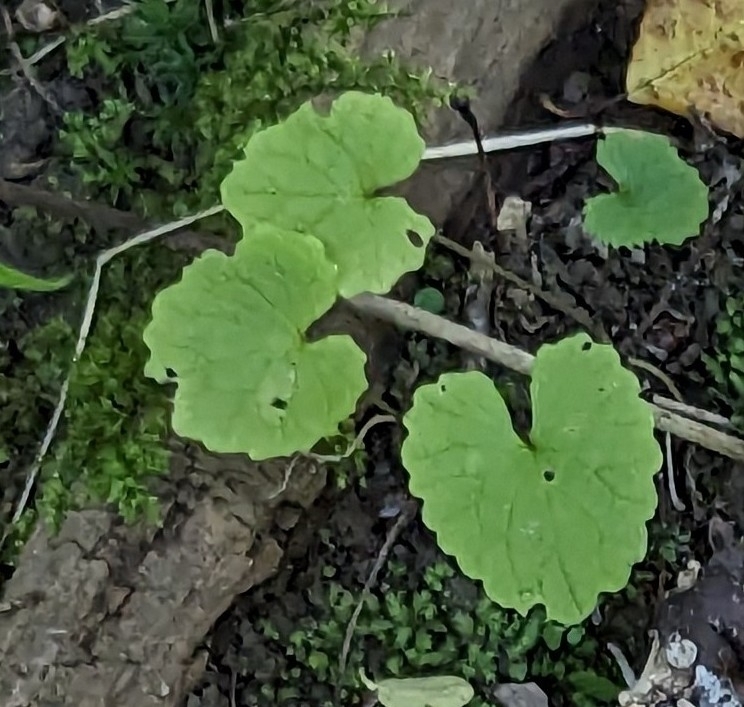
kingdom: Plantae
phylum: Tracheophyta
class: Magnoliopsida
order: Brassicales
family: Brassicaceae
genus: Alliaria
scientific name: Alliaria petiolata
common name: Garlic mustard
